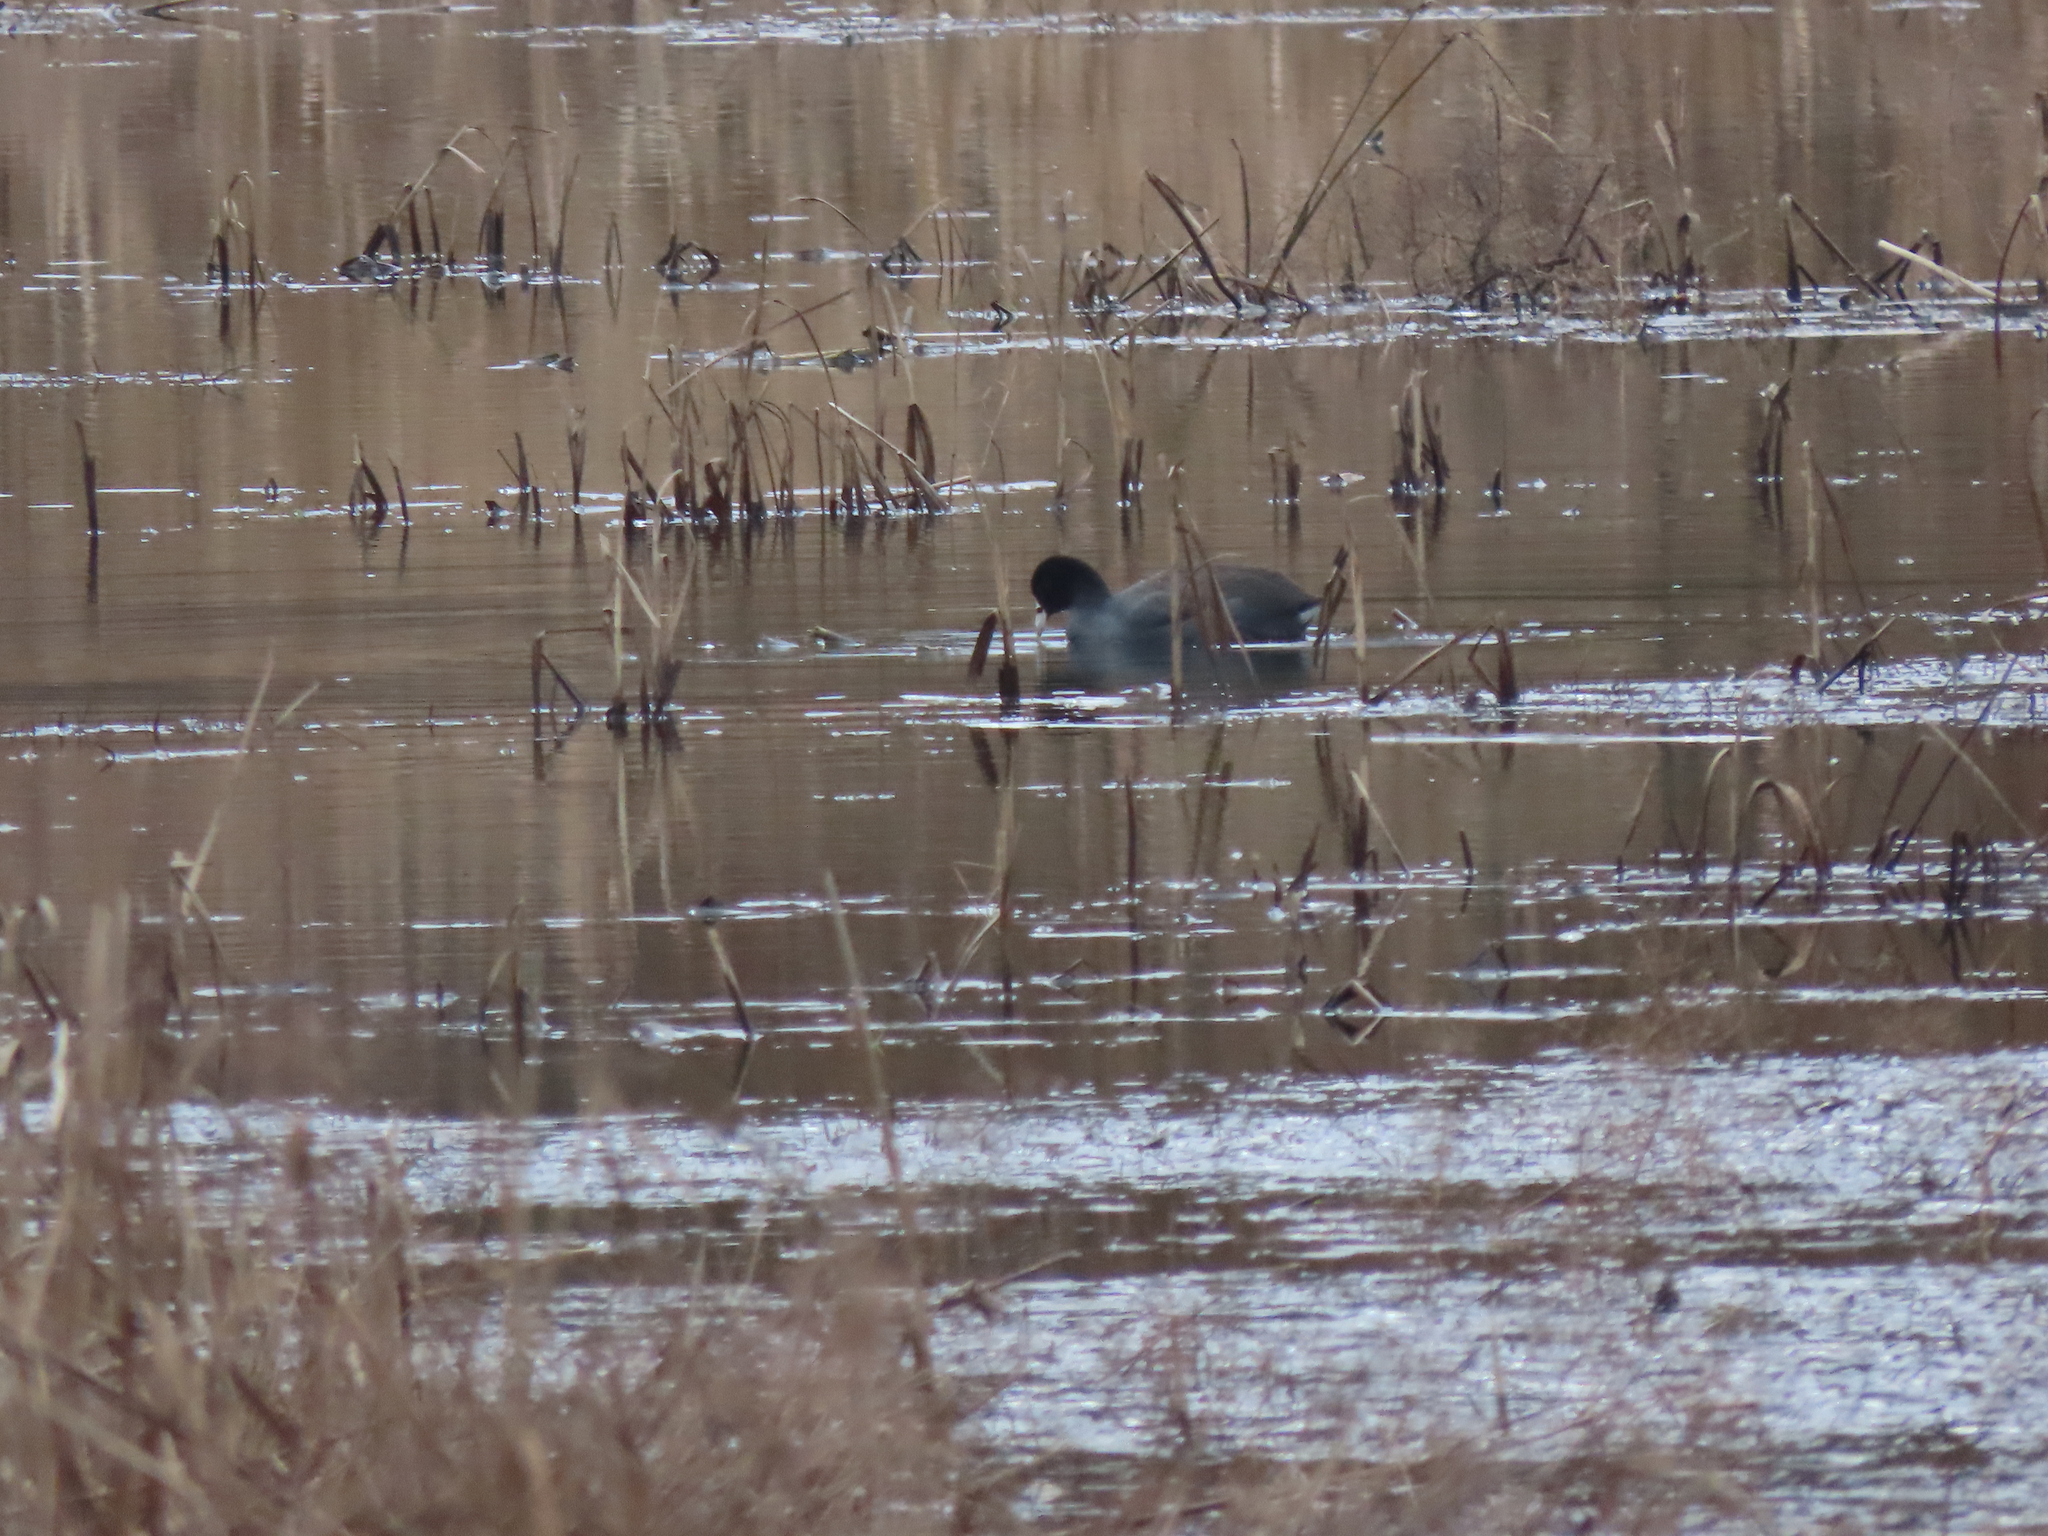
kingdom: Animalia
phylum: Chordata
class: Aves
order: Gruiformes
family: Rallidae
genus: Fulica
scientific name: Fulica americana
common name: American coot
